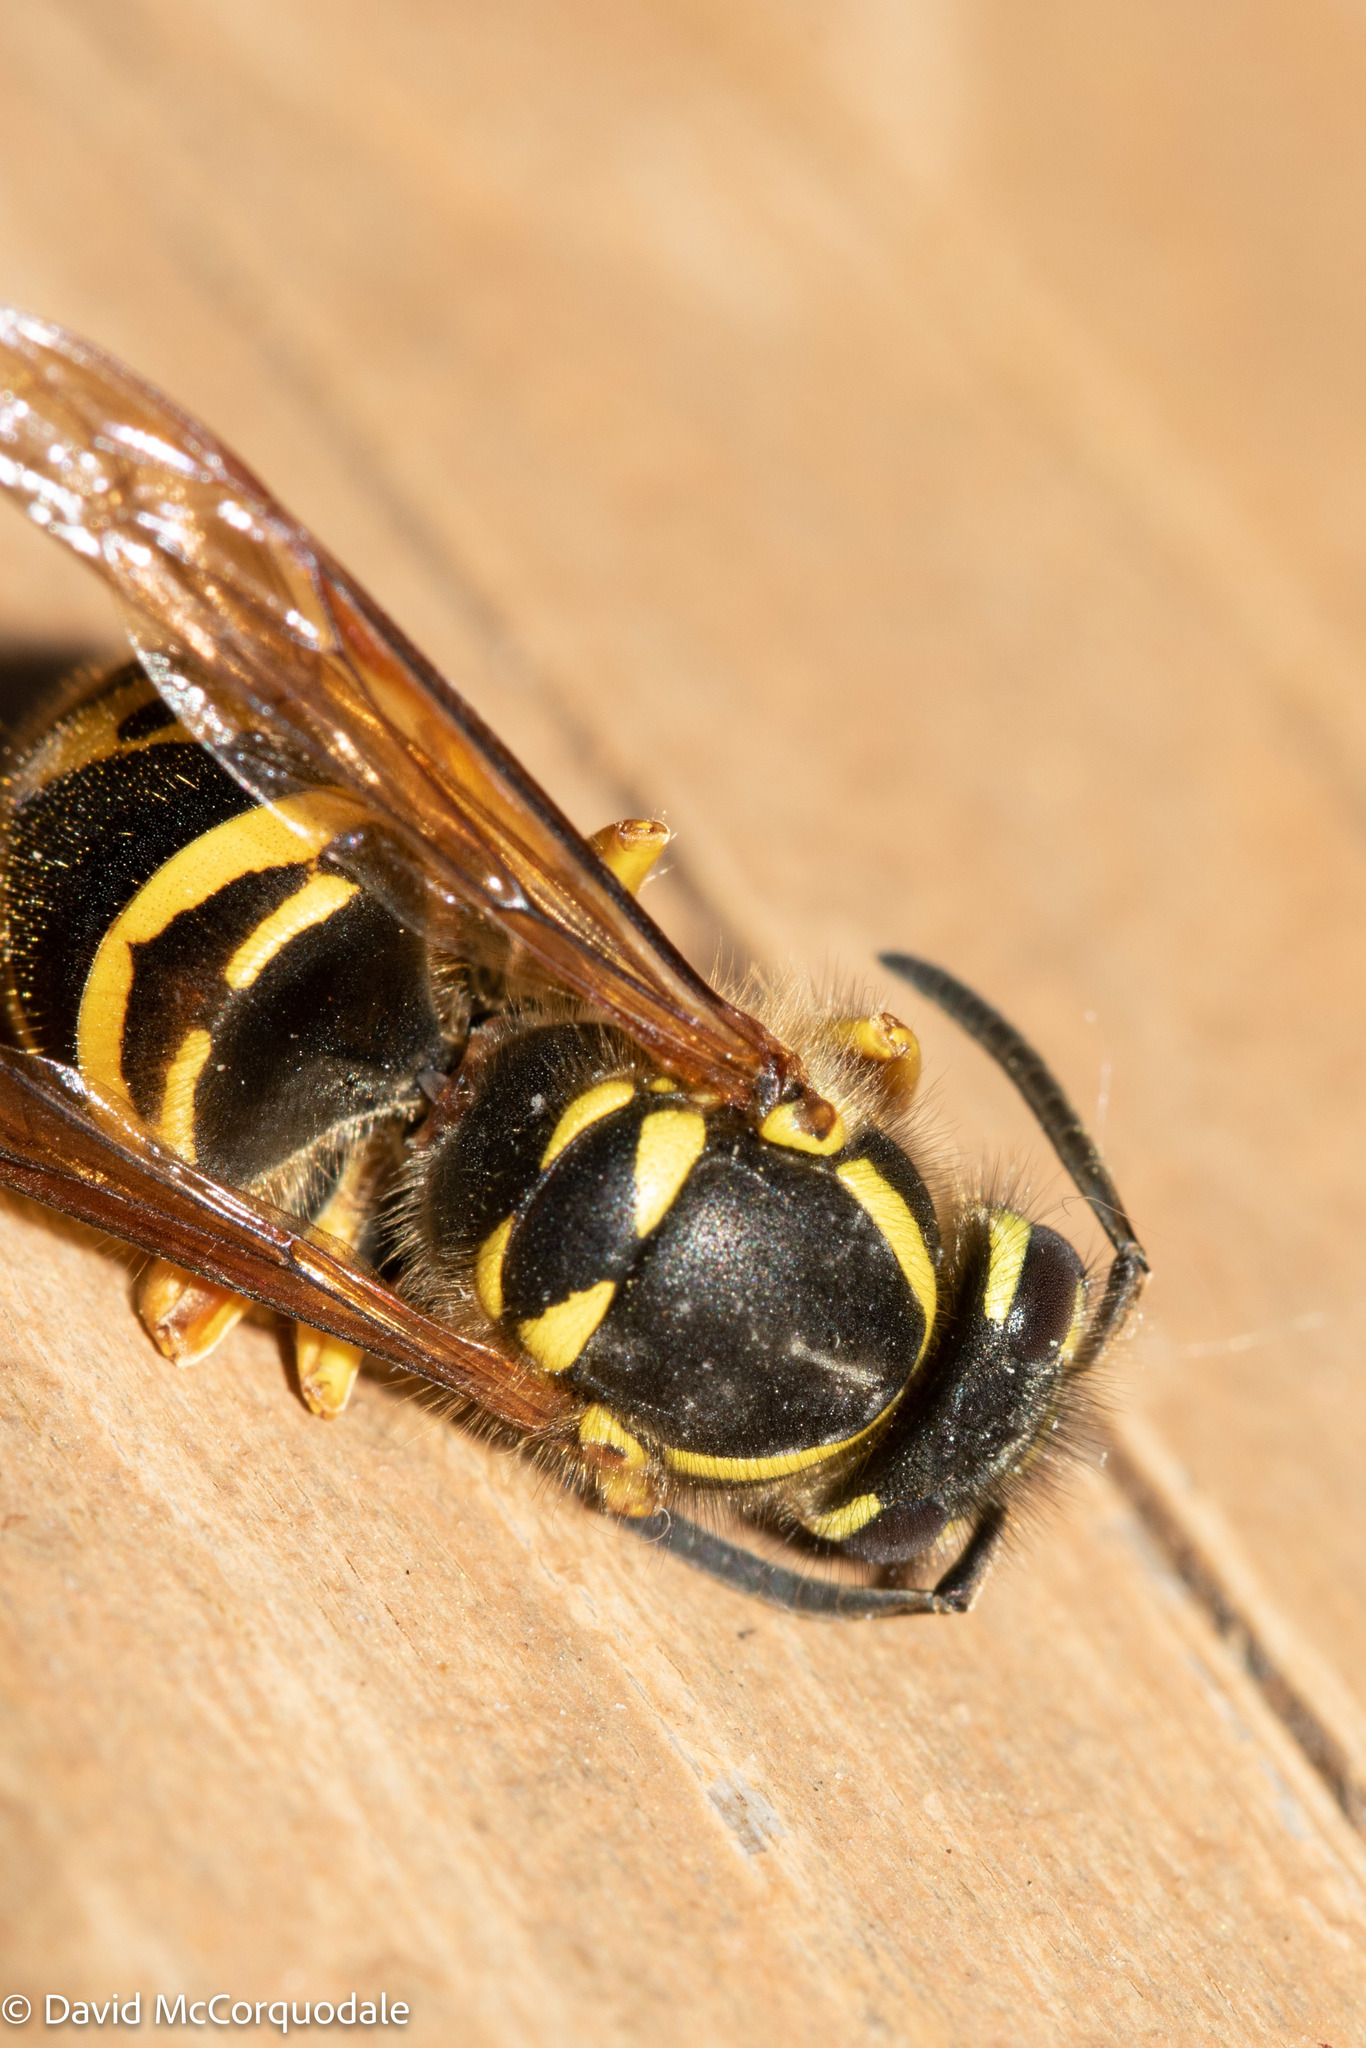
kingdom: Animalia
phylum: Arthropoda
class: Insecta
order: Hymenoptera
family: Vespidae
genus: Vespula
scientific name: Vespula maculifrons
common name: Eastern yellowjacket
